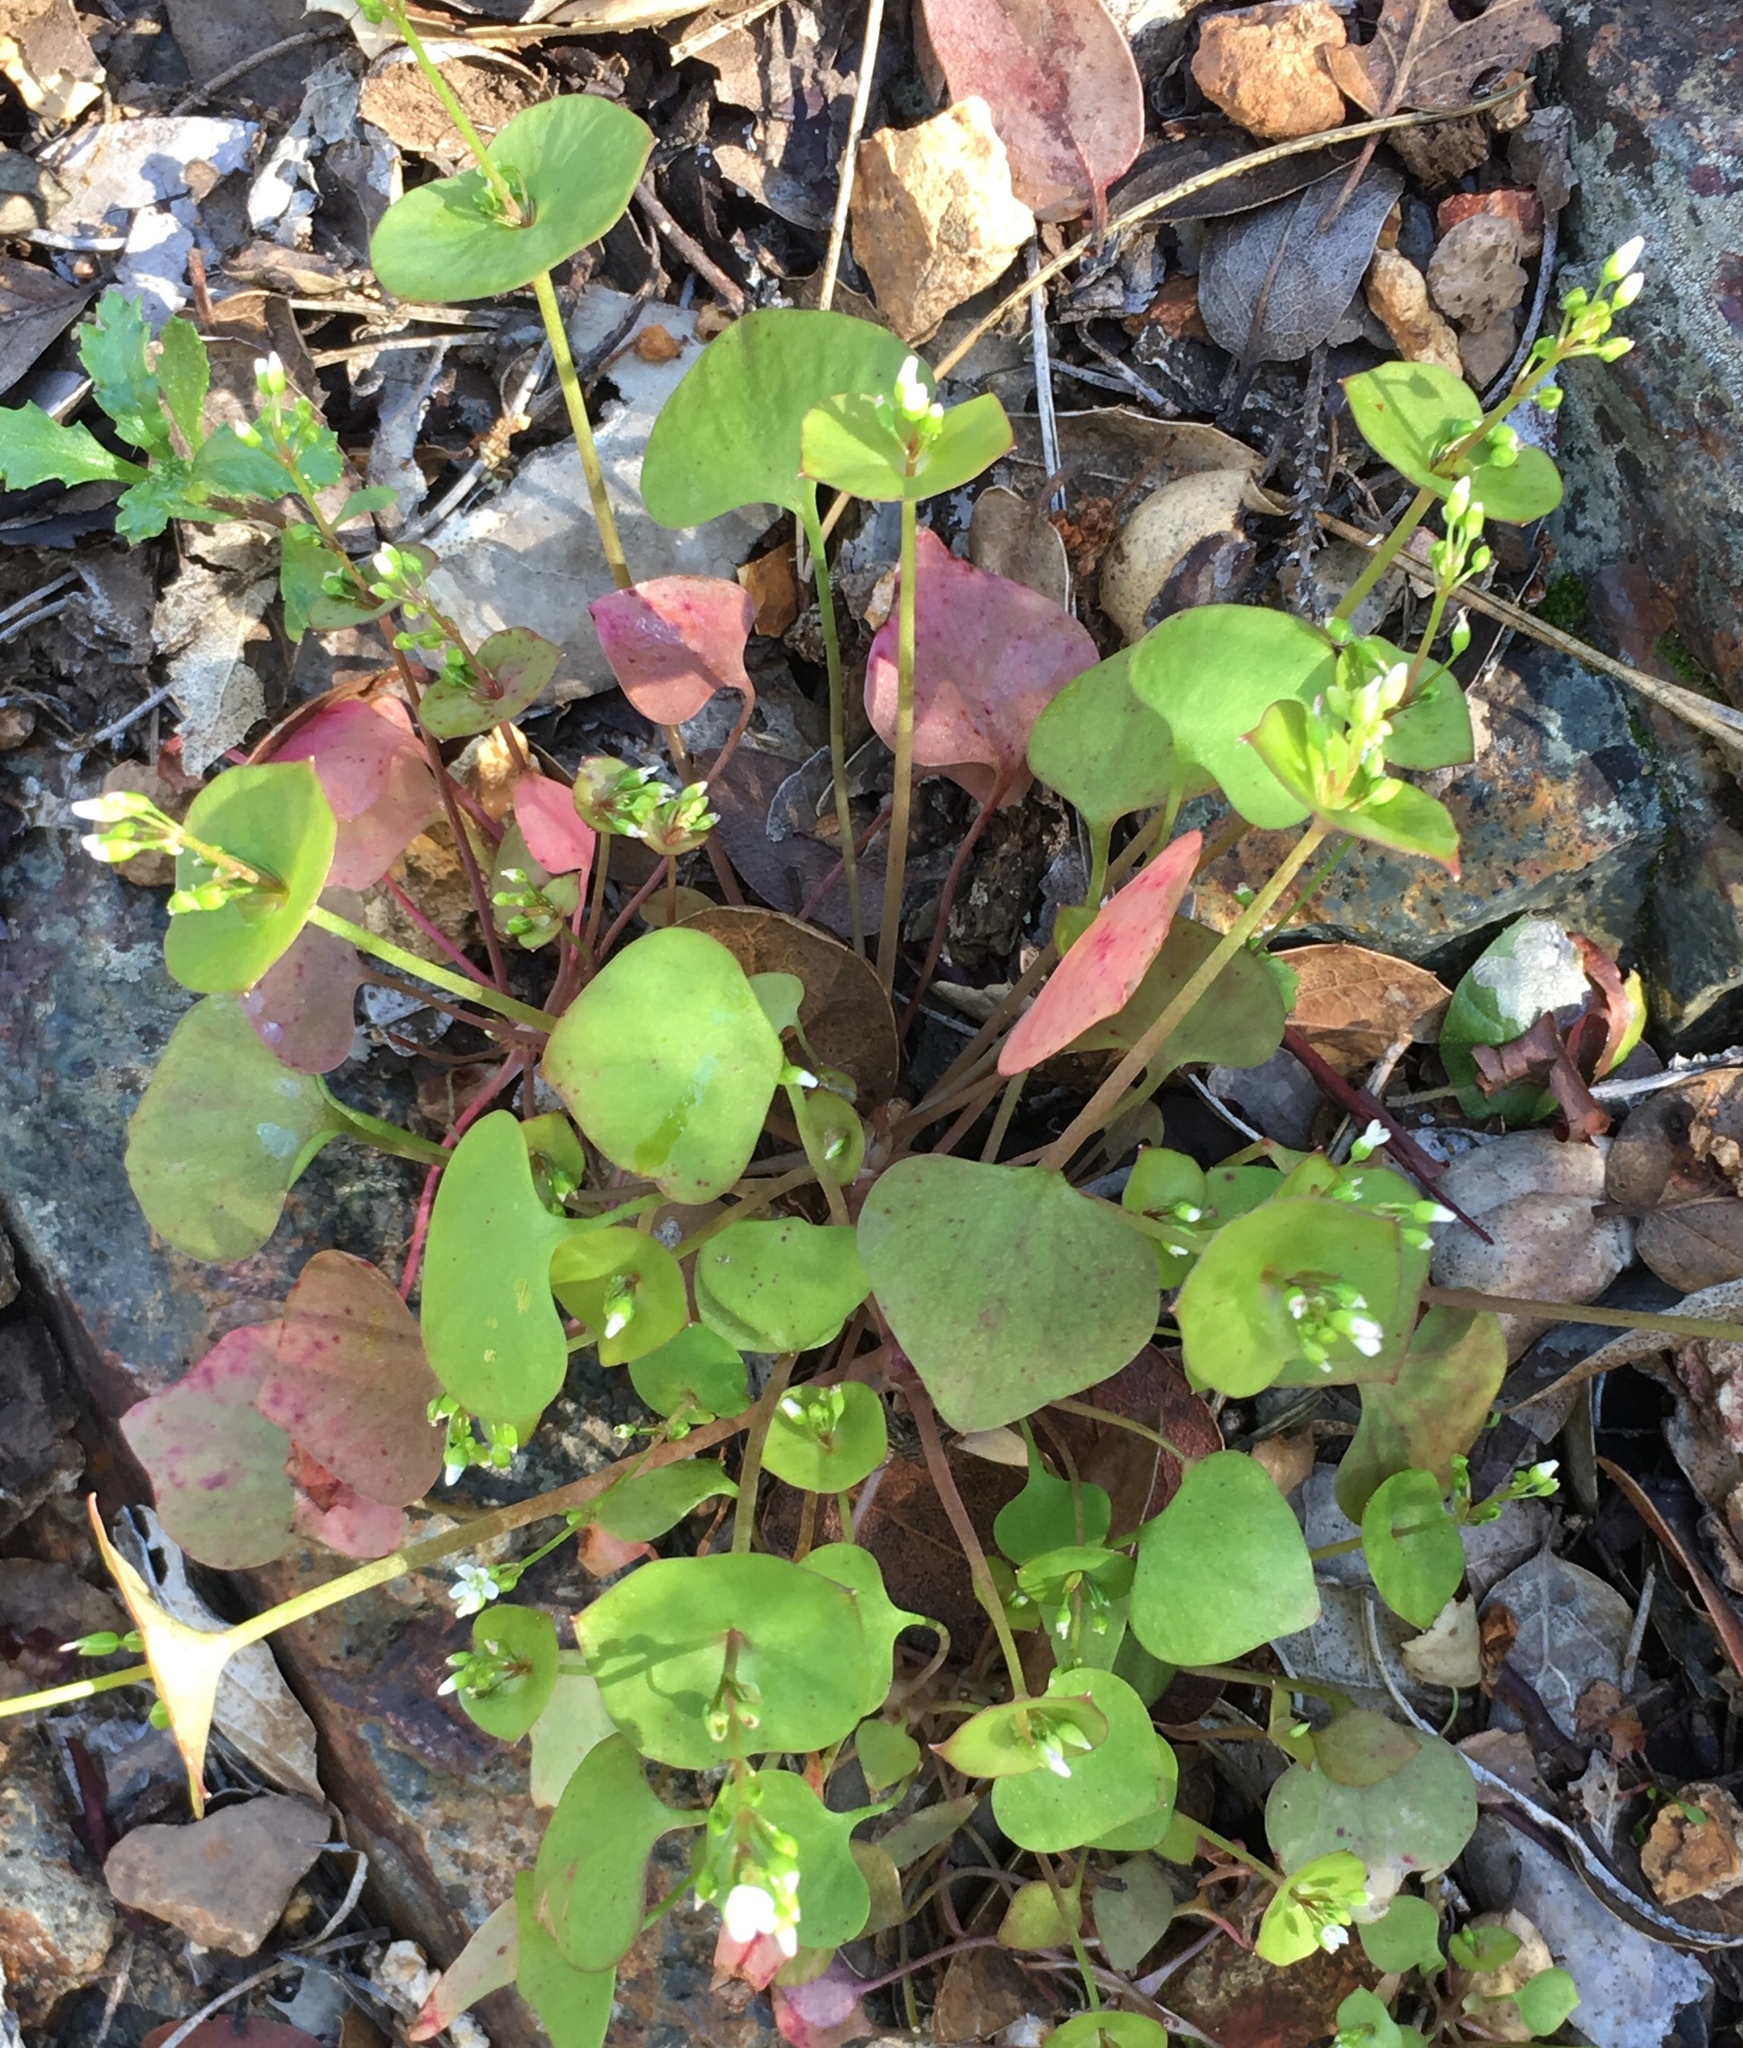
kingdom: Plantae
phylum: Tracheophyta
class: Magnoliopsida
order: Caryophyllales
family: Montiaceae
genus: Claytonia
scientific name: Claytonia perfoliata
